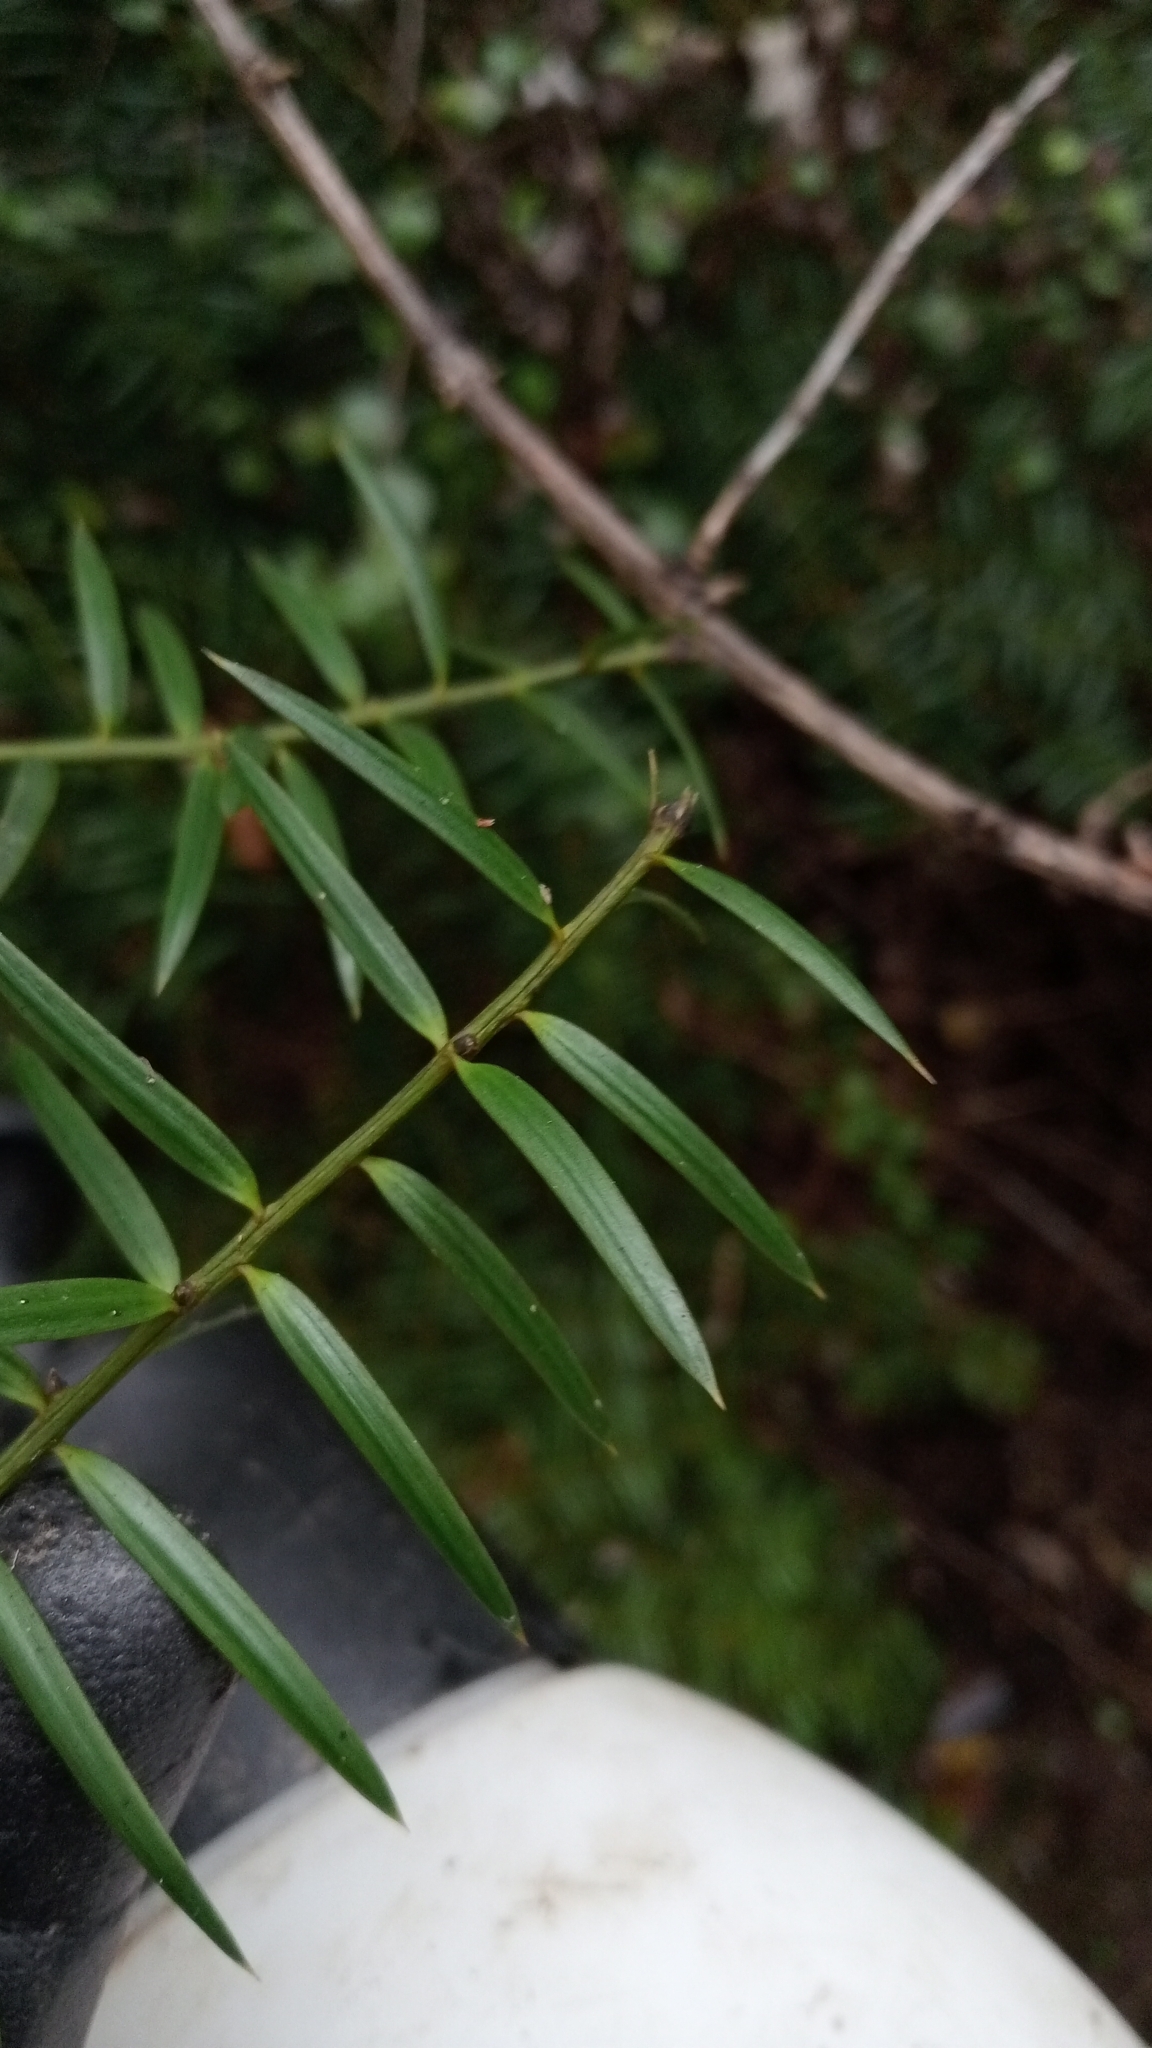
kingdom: Plantae
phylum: Tracheophyta
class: Pinopsida
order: Pinales
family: Podocarpaceae
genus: Podocarpus
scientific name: Podocarpus totara
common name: Totara
